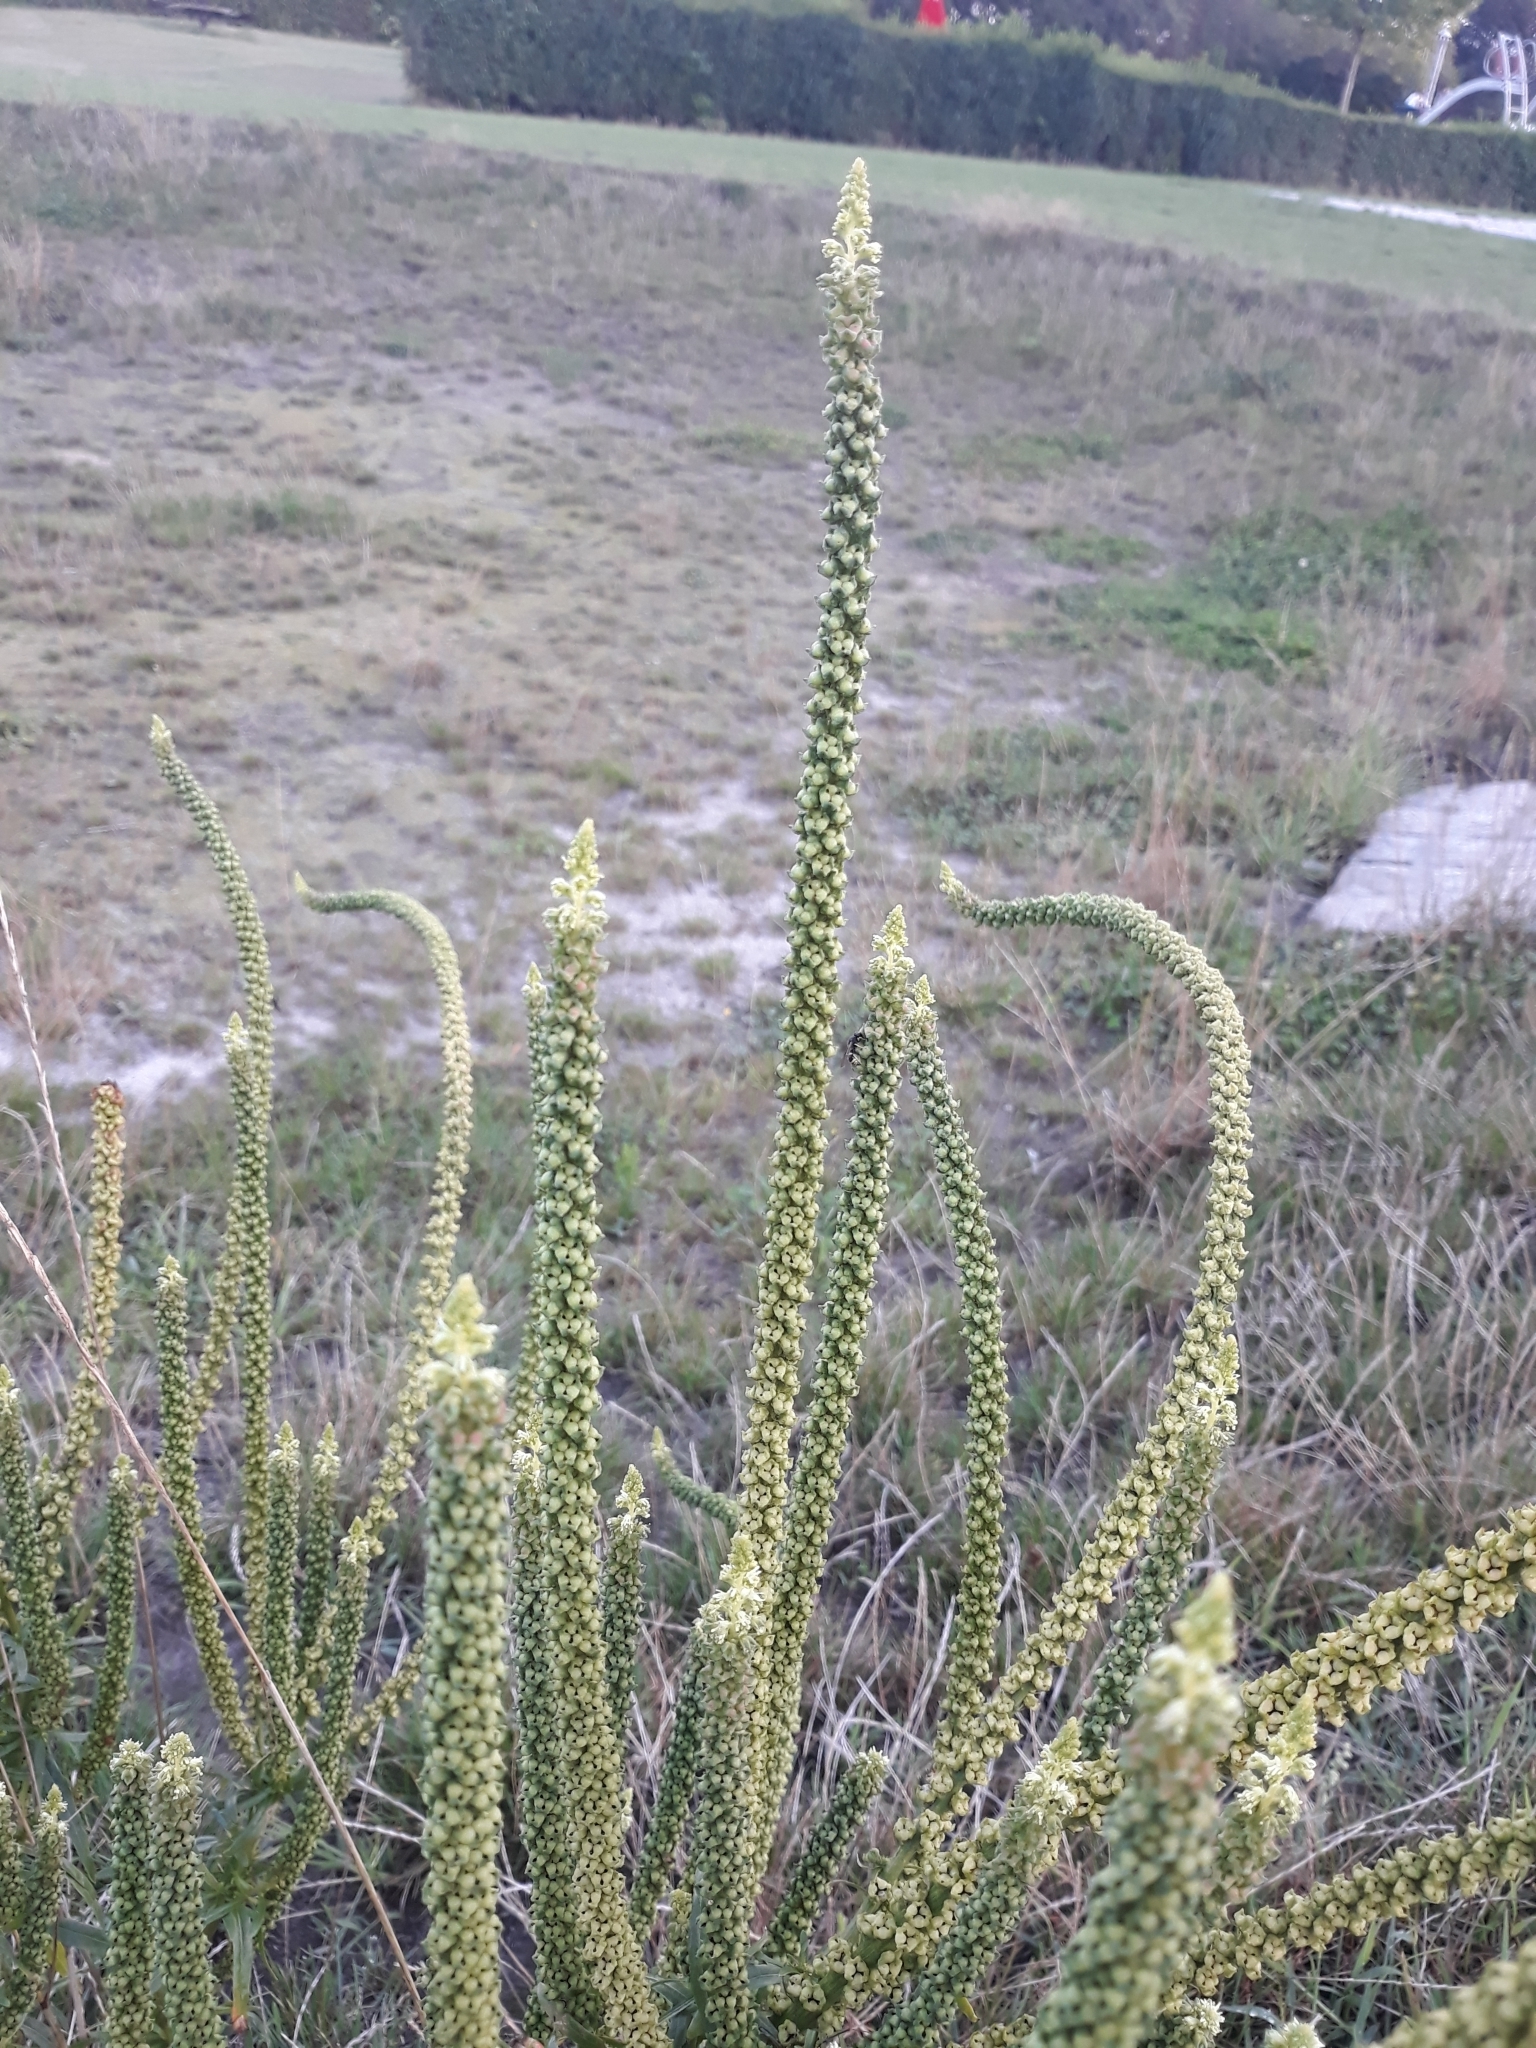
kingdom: Plantae
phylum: Tracheophyta
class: Magnoliopsida
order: Brassicales
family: Resedaceae
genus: Reseda
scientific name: Reseda luteola
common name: Weld
